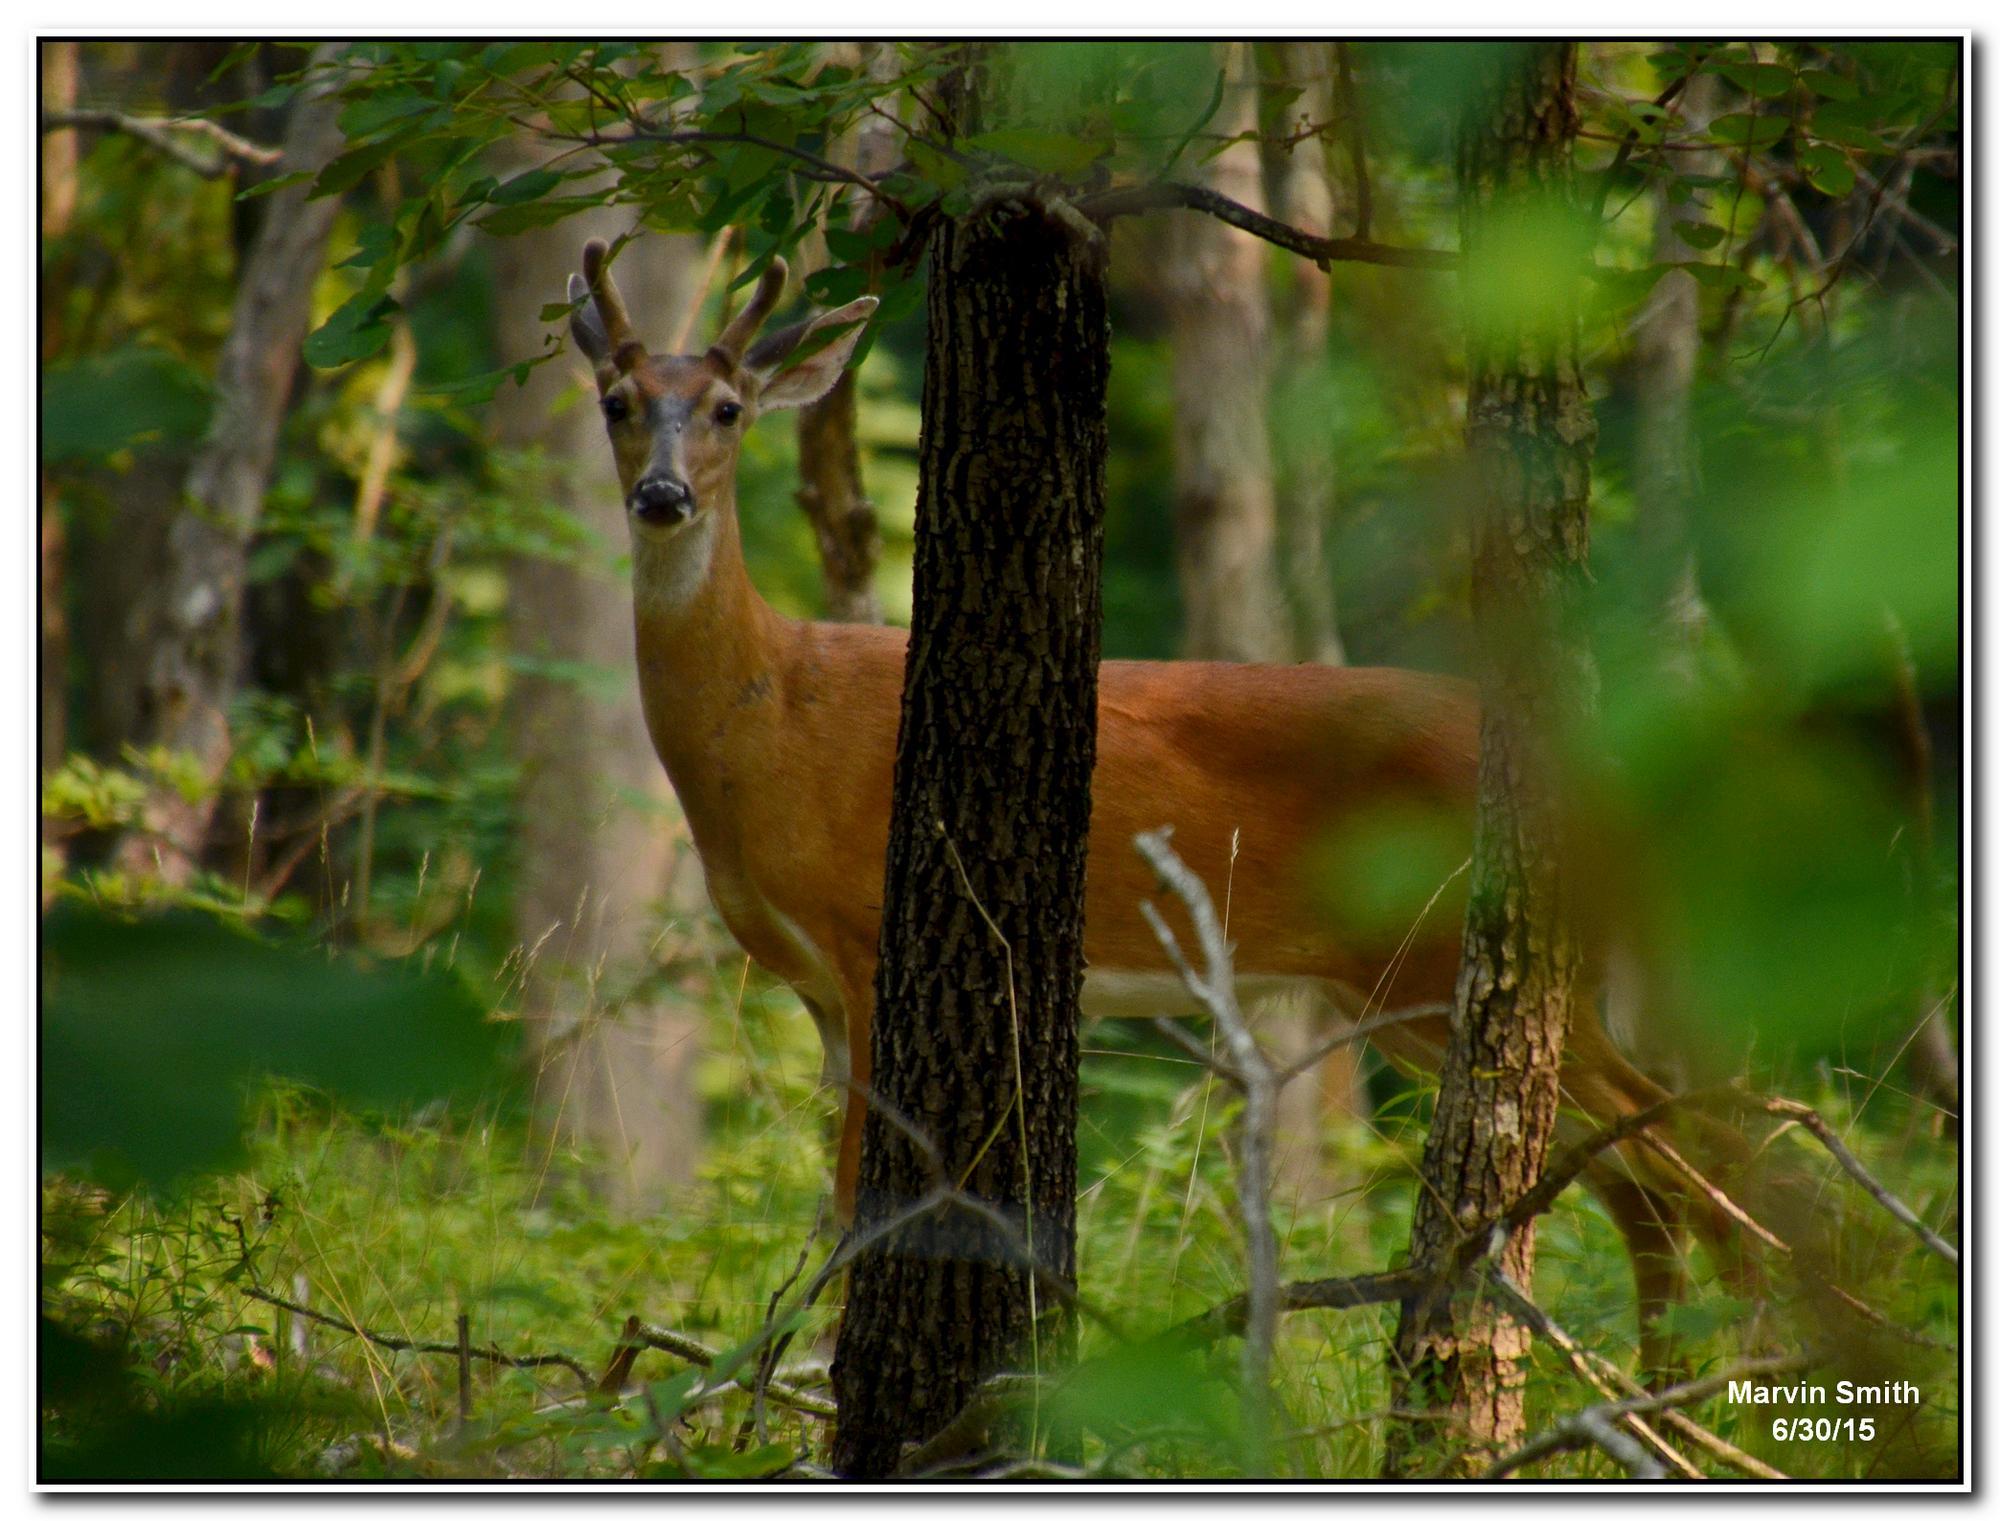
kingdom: Animalia
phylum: Chordata
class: Mammalia
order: Artiodactyla
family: Cervidae
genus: Odocoileus
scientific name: Odocoileus virginianus
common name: White-tailed deer
